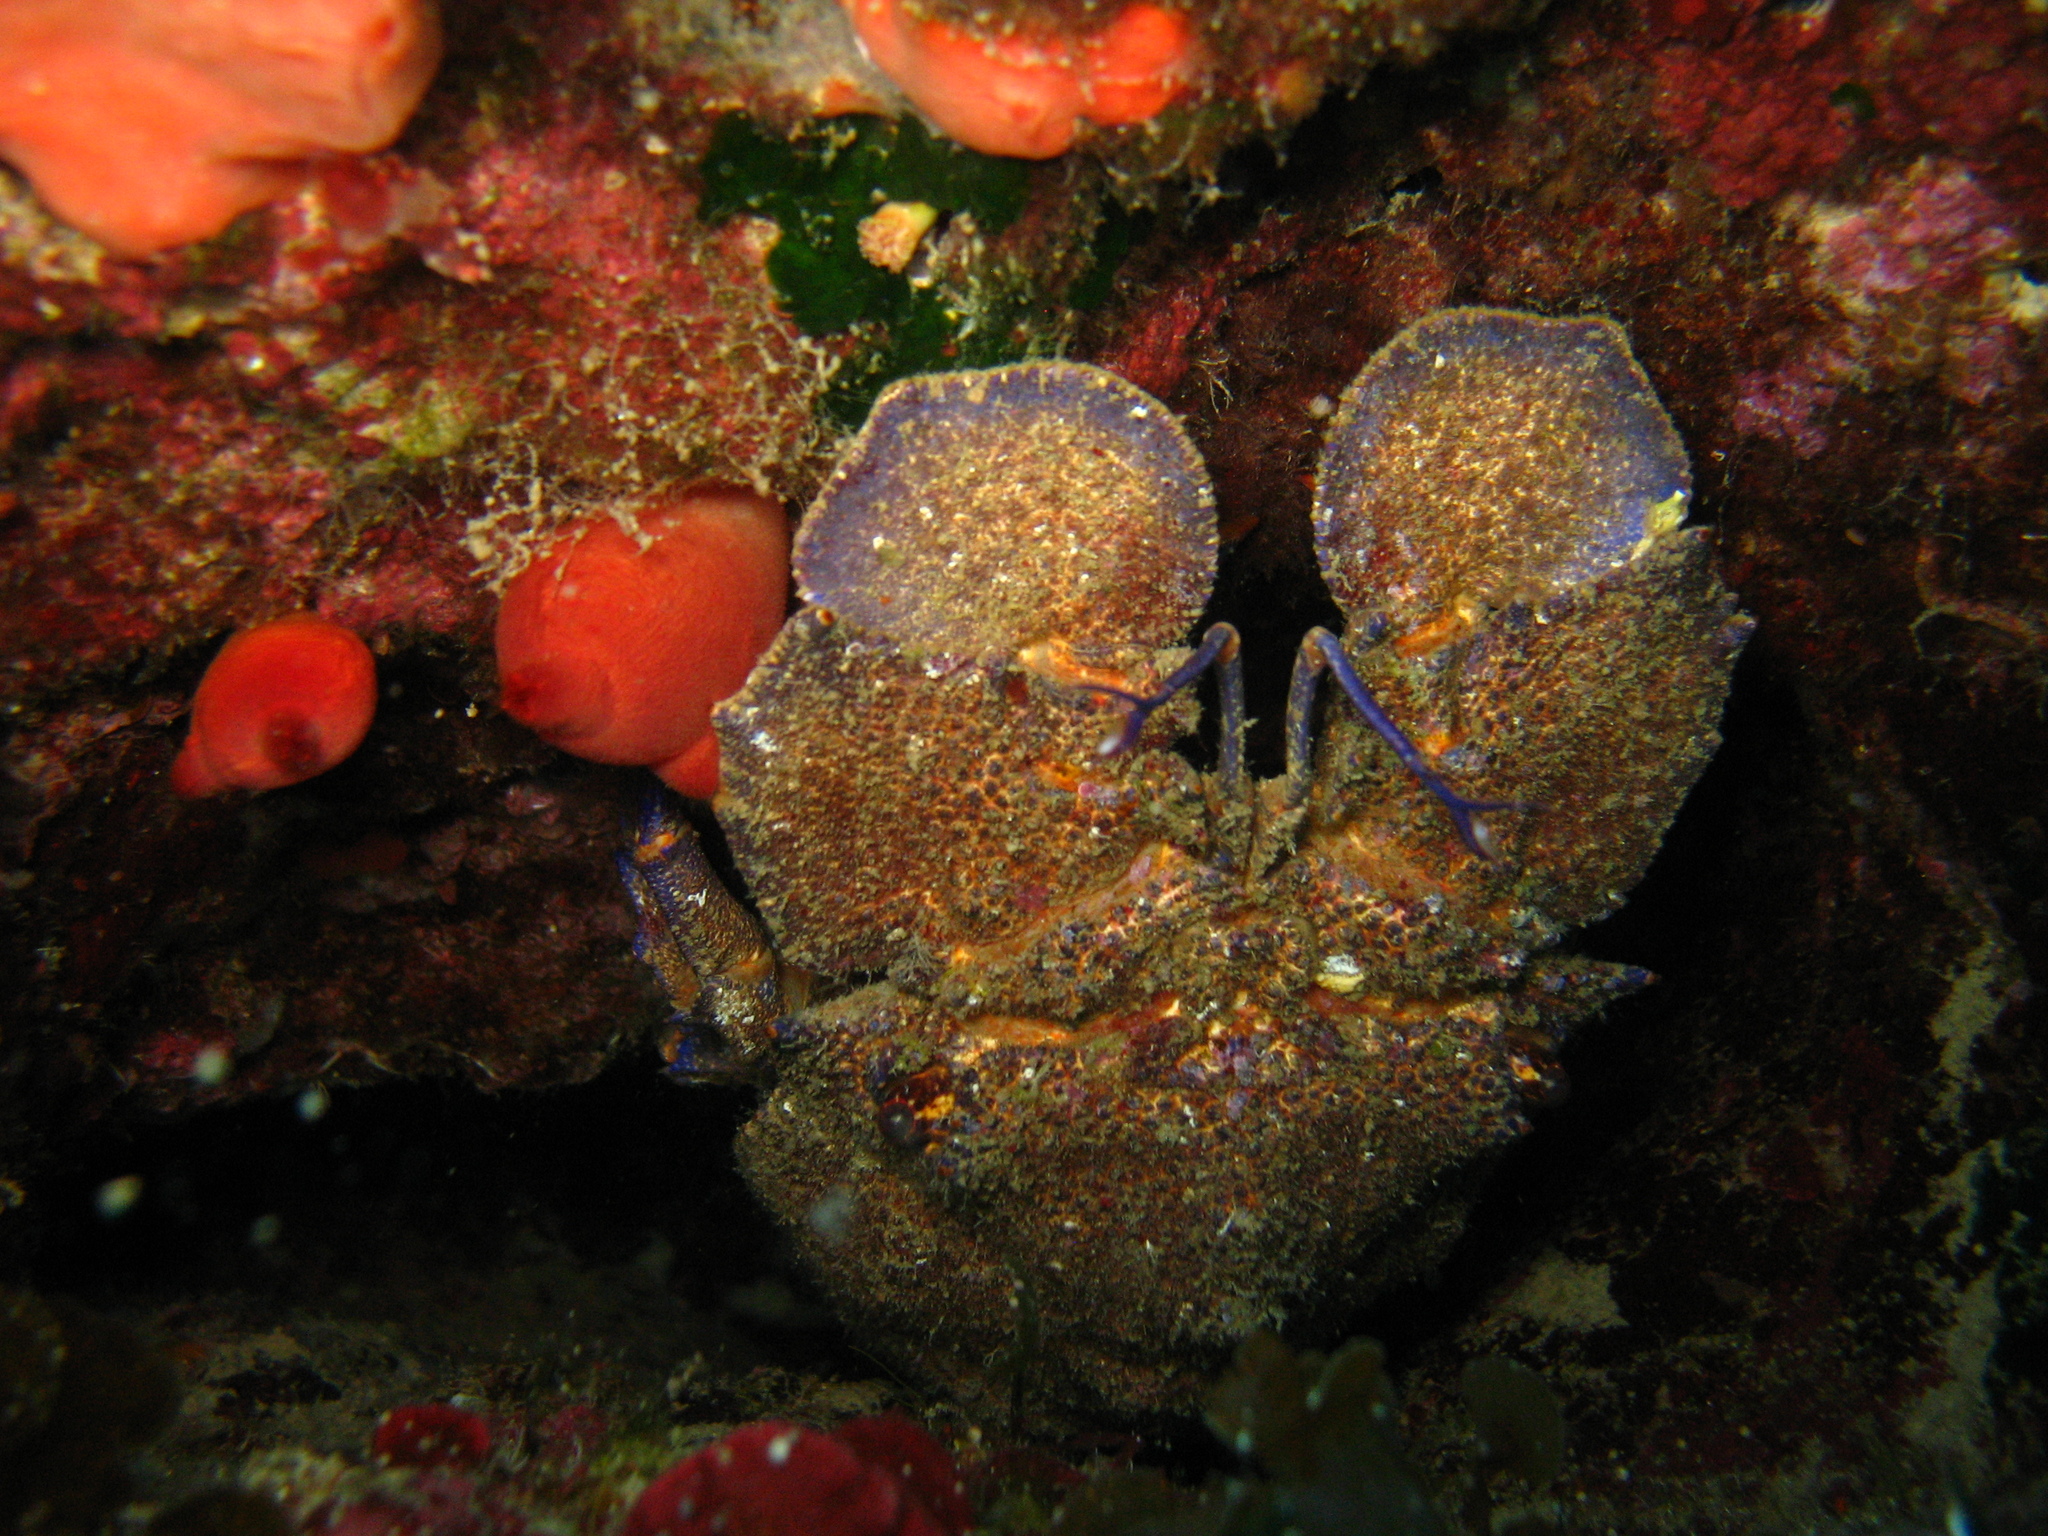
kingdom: Animalia
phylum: Arthropoda
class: Malacostraca
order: Decapoda
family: Scyllaridae
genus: Scyllarides
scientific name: Scyllarides latus
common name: Mediterranean slipper lobster
